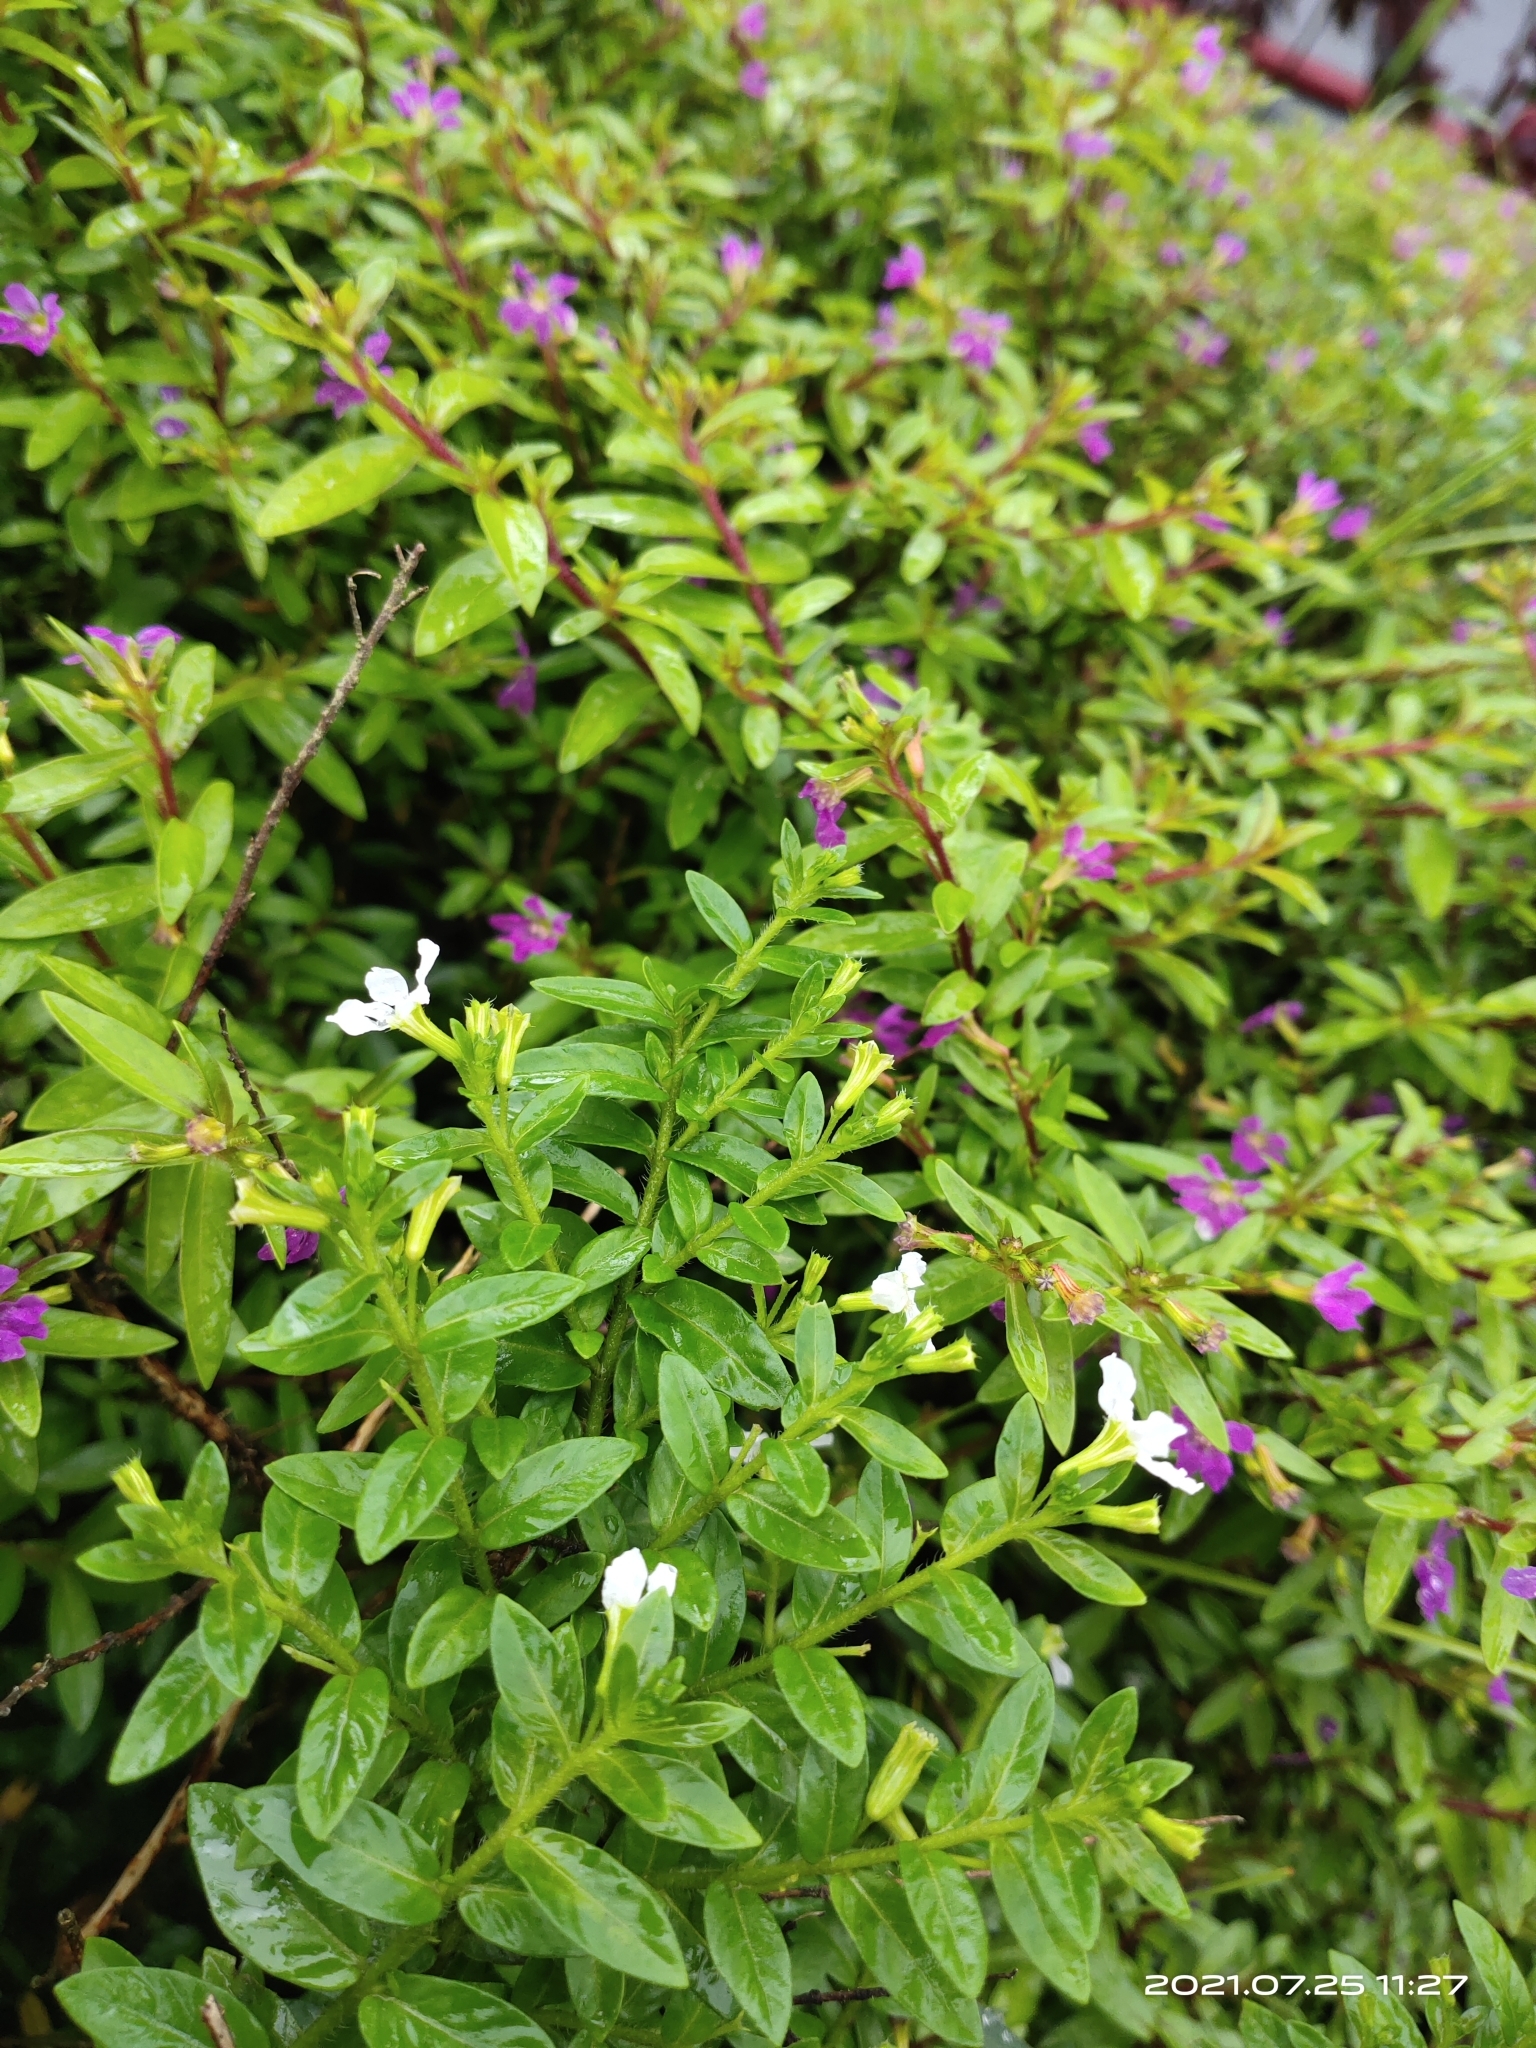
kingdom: Plantae
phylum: Tracheophyta
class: Magnoliopsida
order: Myrtales
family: Lythraceae
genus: Cuphea
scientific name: Cuphea hyssopifolia
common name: False heather
